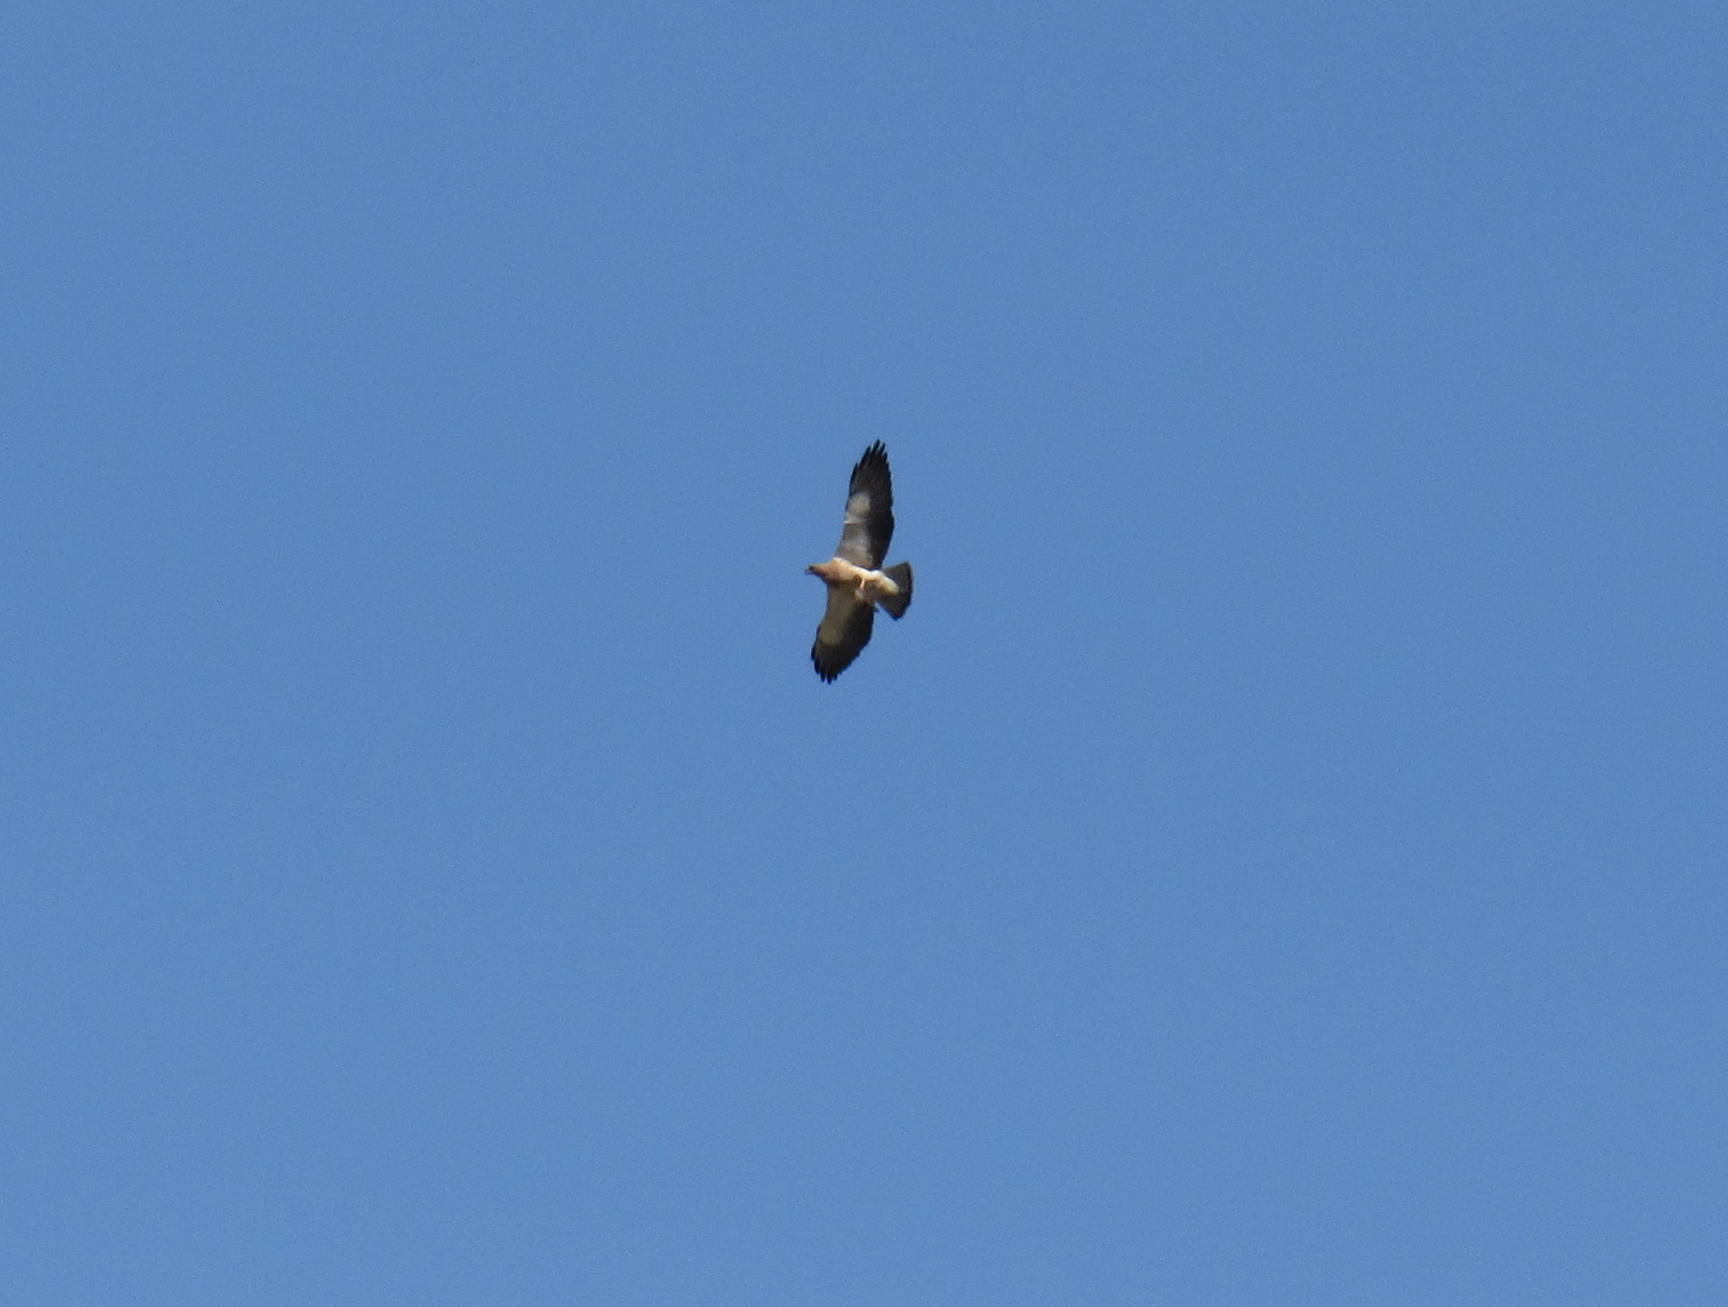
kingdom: Animalia
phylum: Chordata
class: Aves
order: Accipitriformes
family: Accipitridae
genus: Buteo
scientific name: Buteo swainsoni
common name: Swainson's hawk
